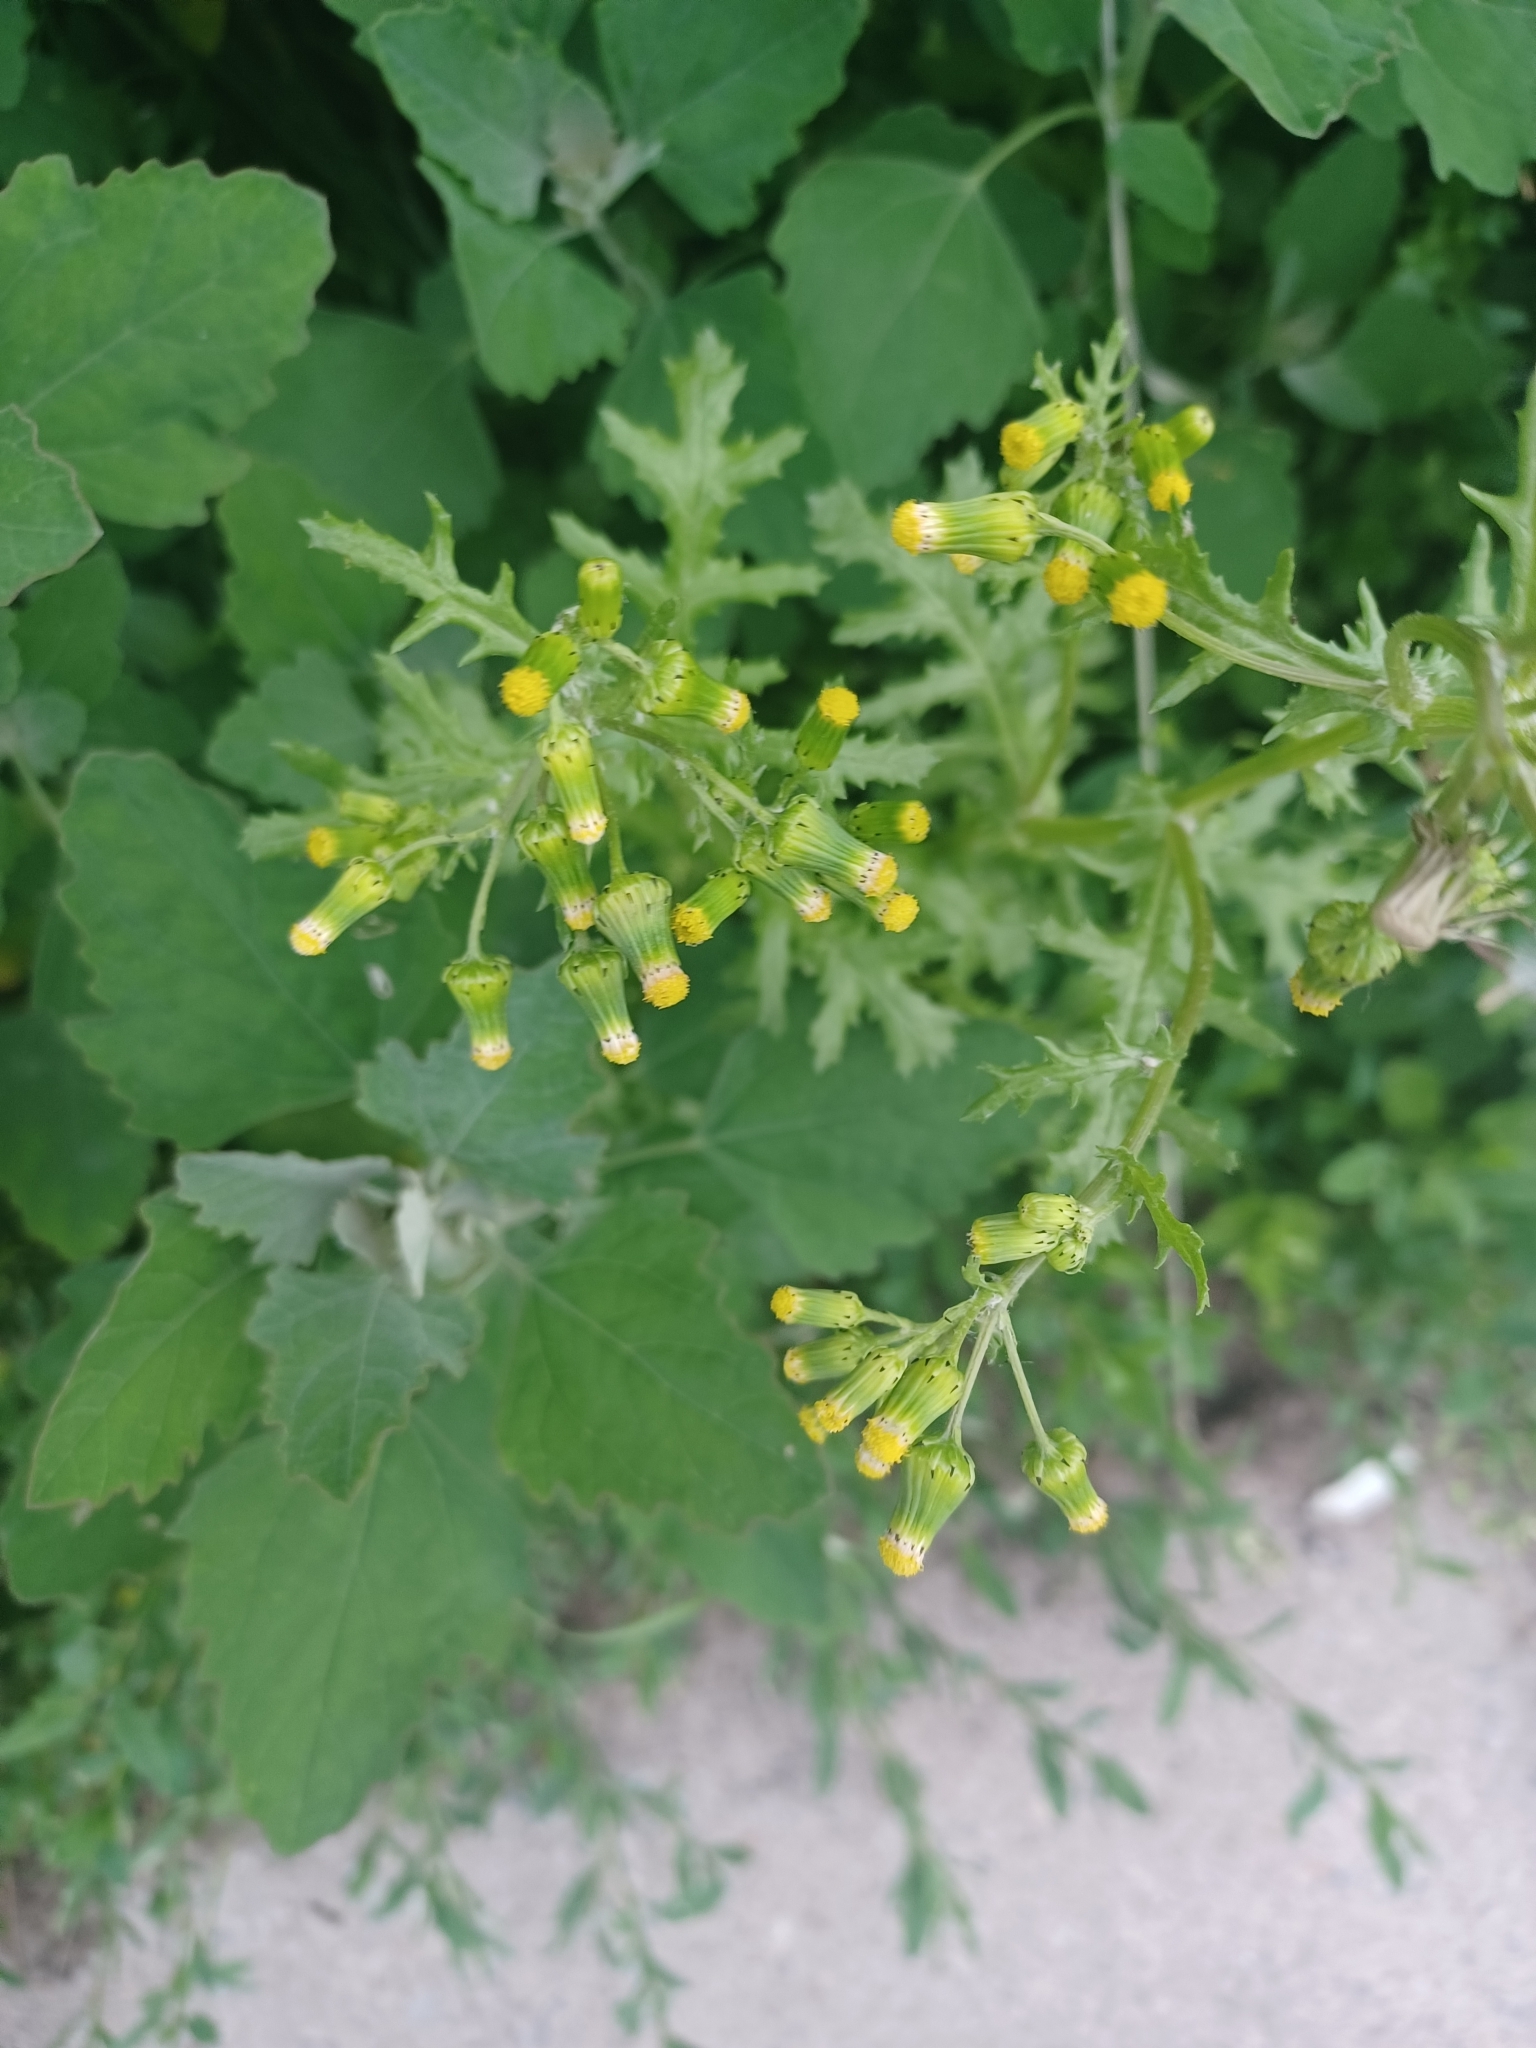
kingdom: Plantae
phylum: Tracheophyta
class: Magnoliopsida
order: Asterales
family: Asteraceae
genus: Senecio
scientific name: Senecio vulgaris
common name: Old-man-in-the-spring
